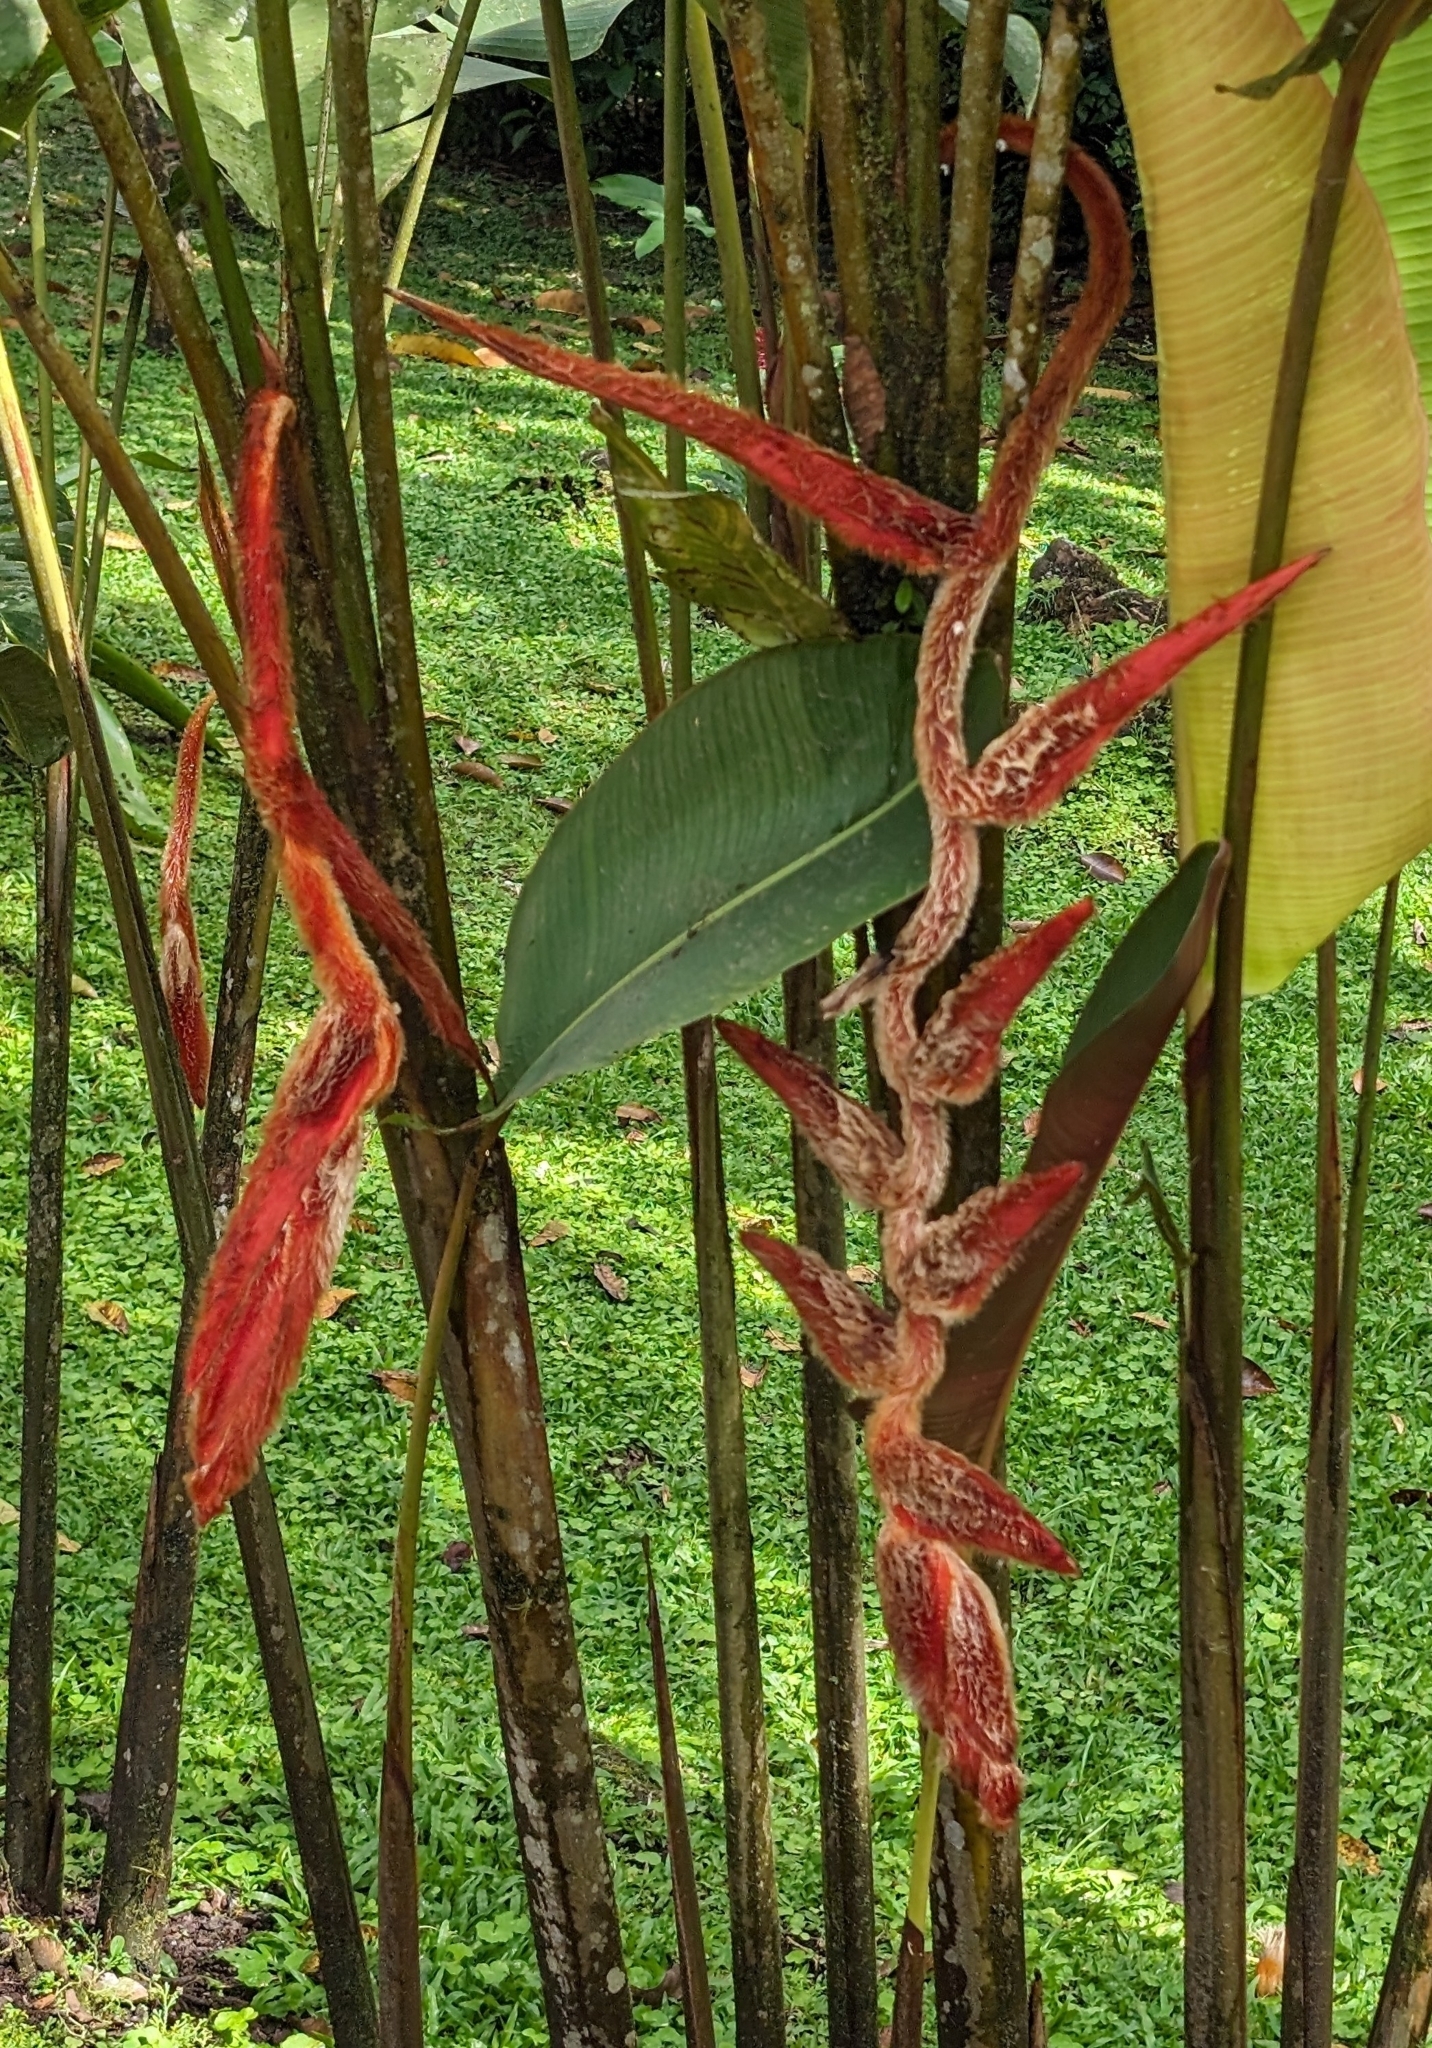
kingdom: Plantae
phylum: Tracheophyta
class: Liliopsida
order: Zingiberales
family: Heliconiaceae
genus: Heliconia
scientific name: Heliconia vellerigera
